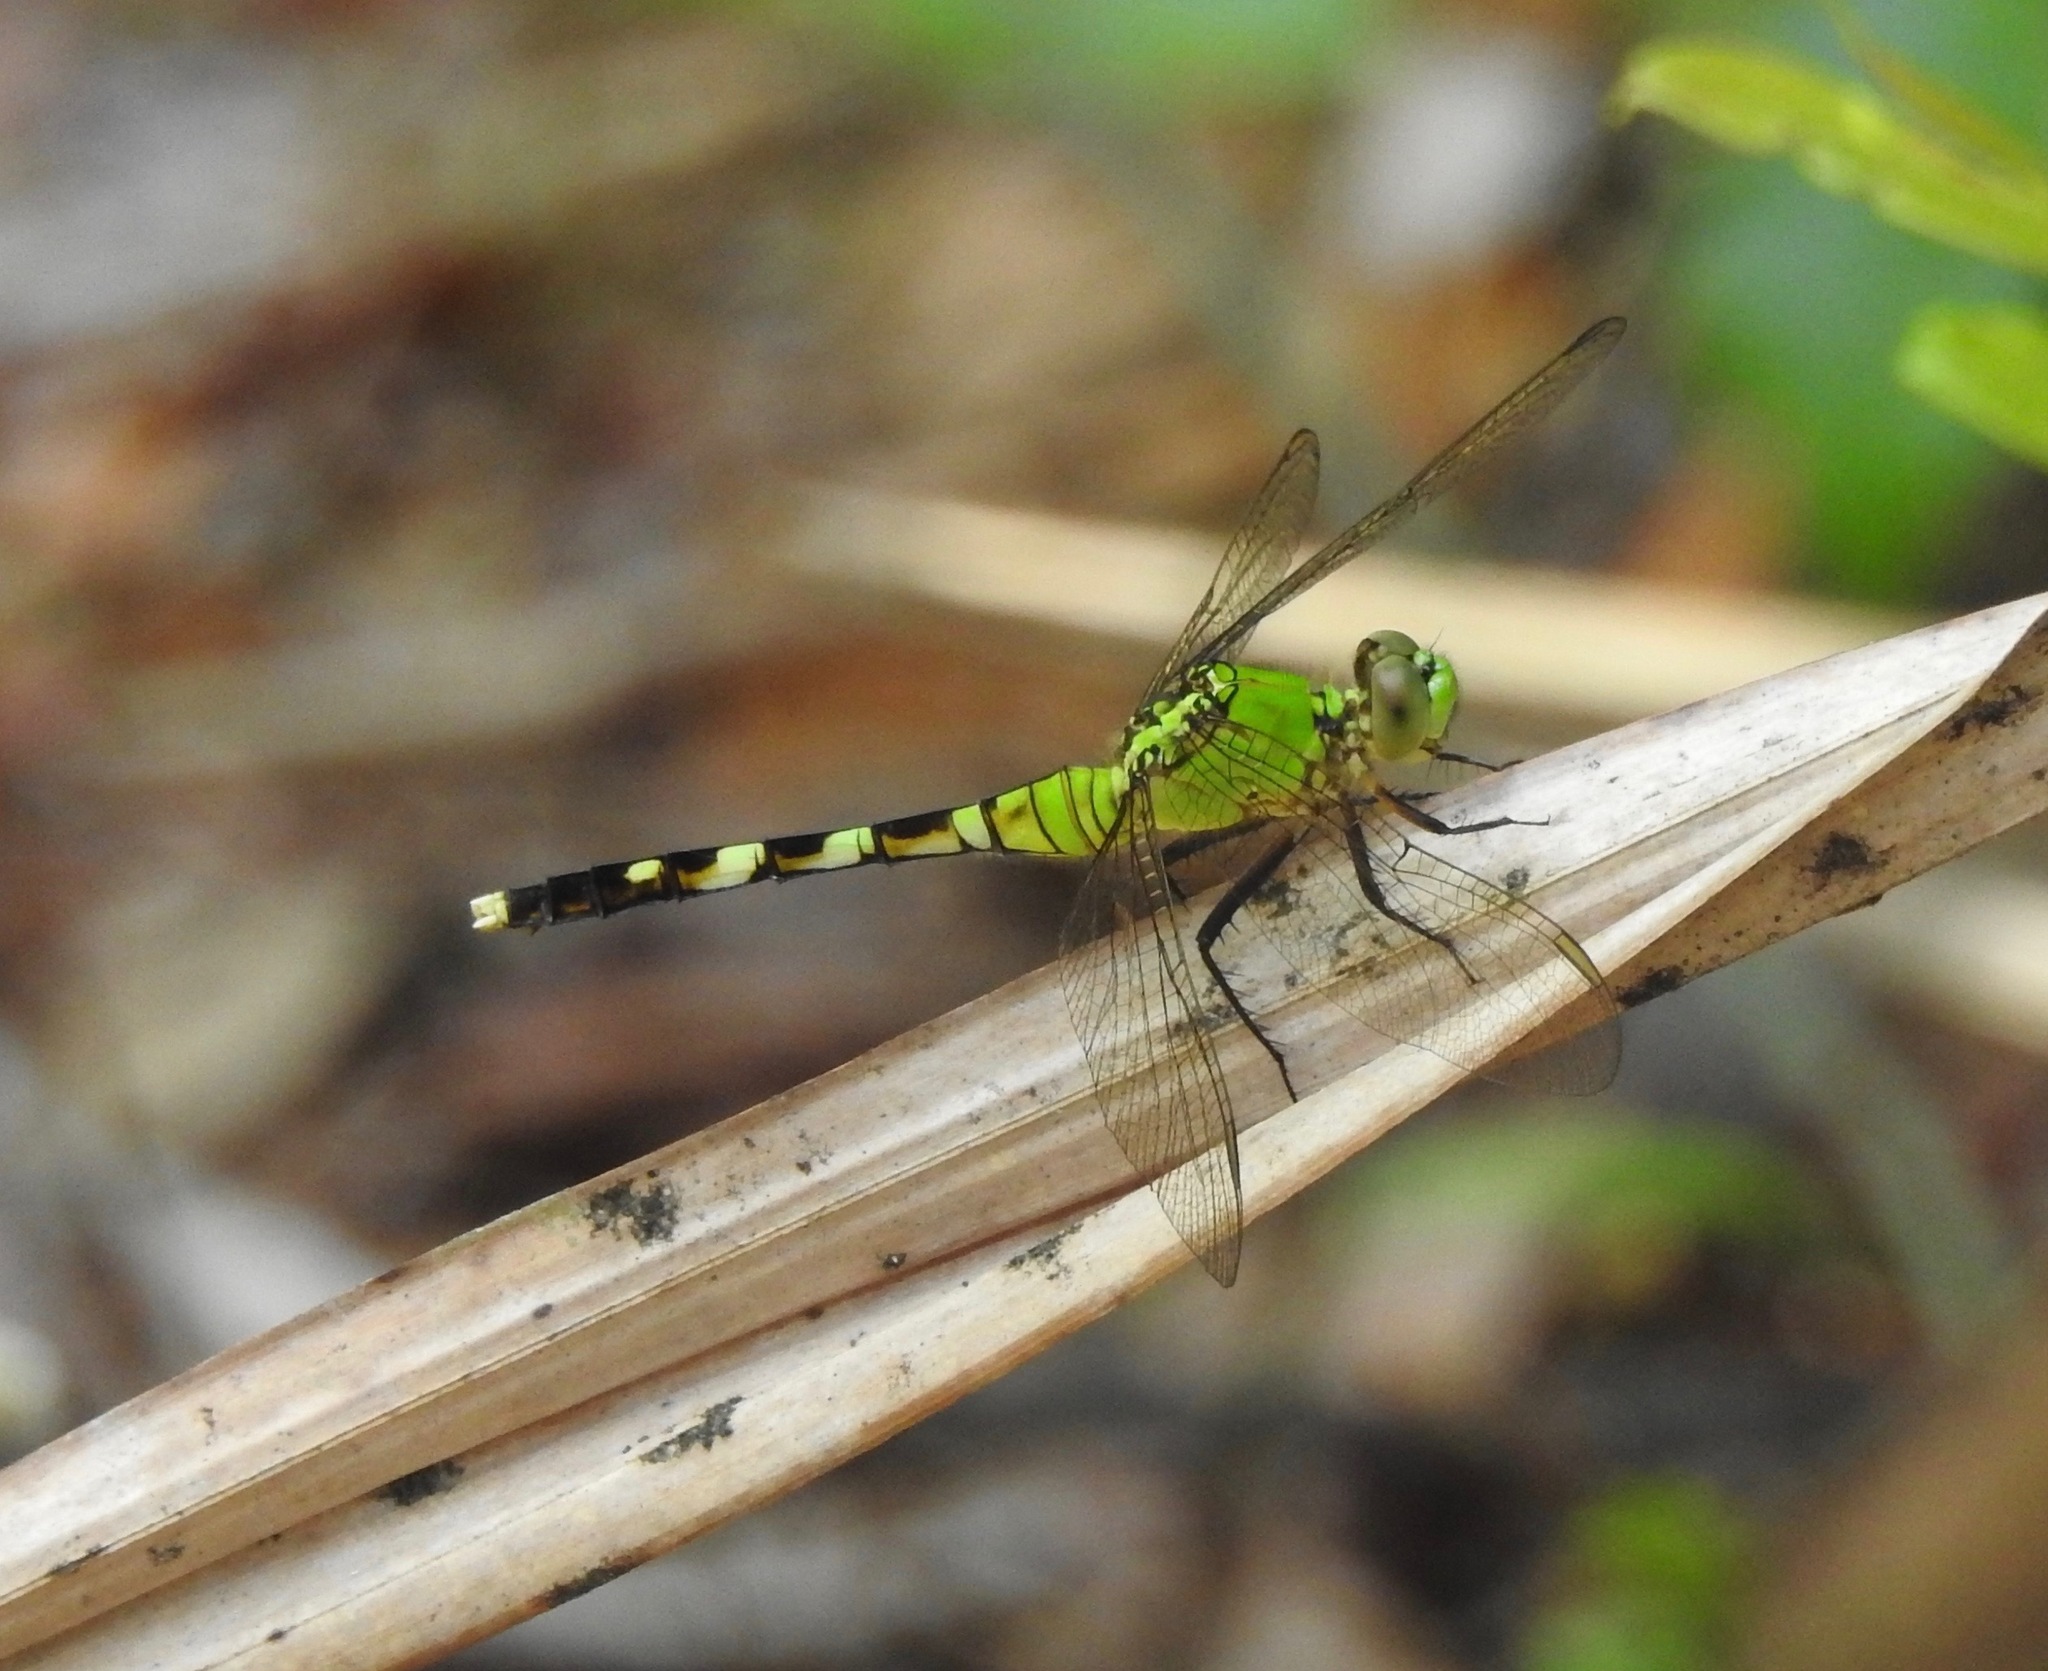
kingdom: Animalia
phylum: Arthropoda
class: Insecta
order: Odonata
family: Libellulidae
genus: Erythemis
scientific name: Erythemis simplicicollis
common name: Eastern pondhawk
